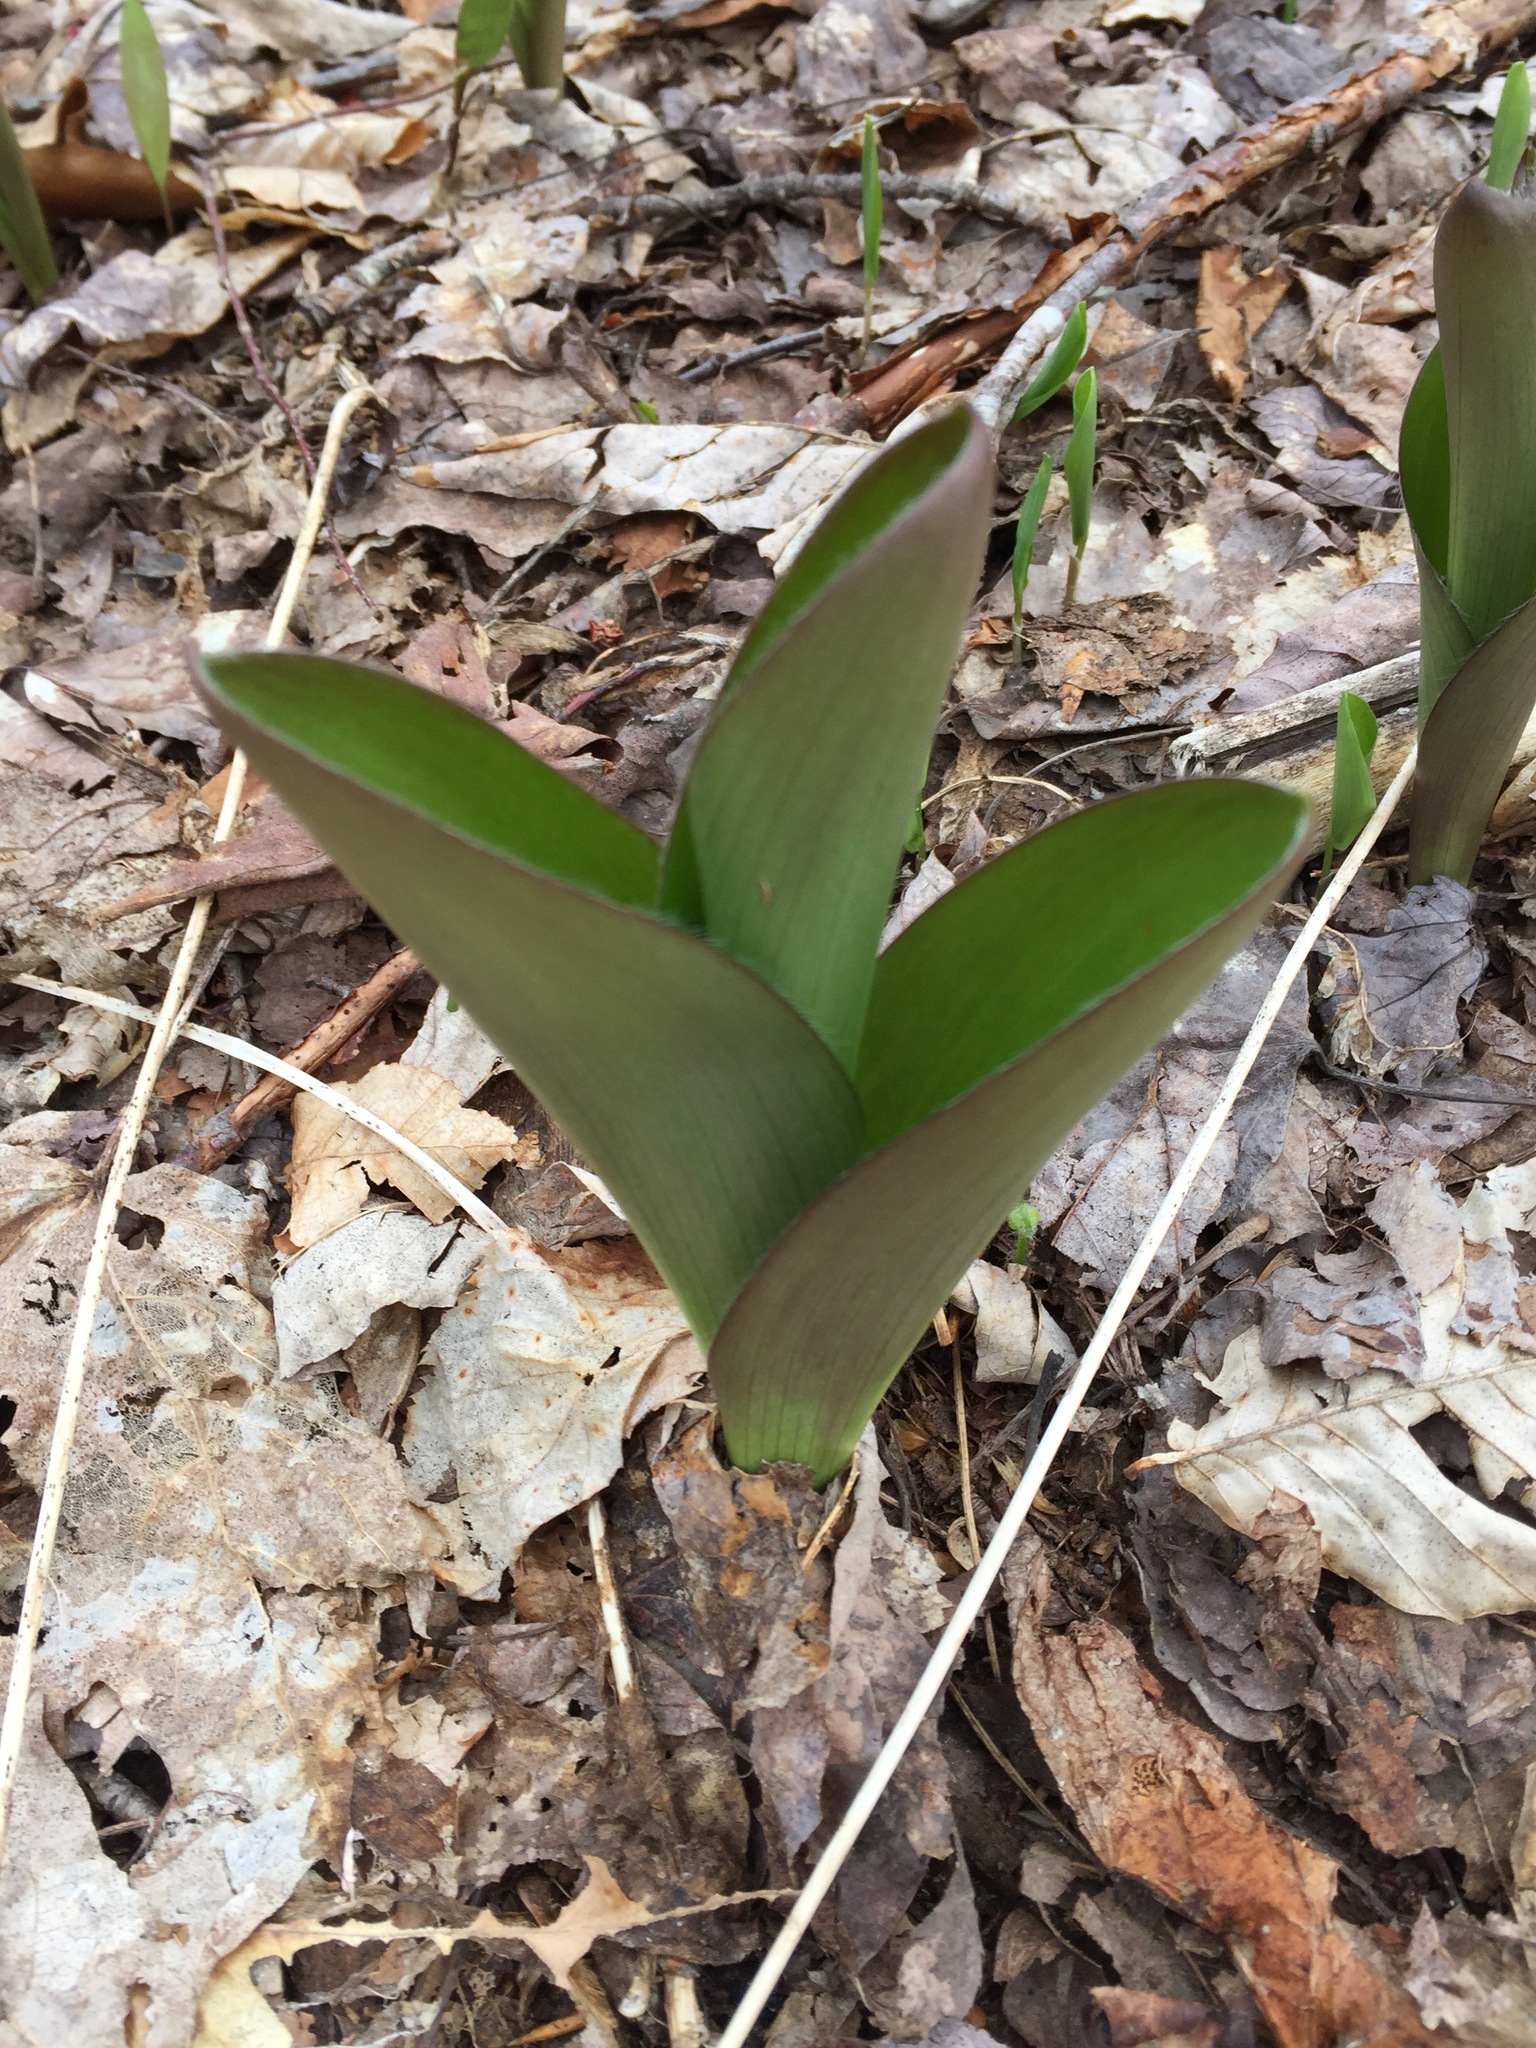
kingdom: Plantae
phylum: Tracheophyta
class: Liliopsida
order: Liliales
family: Liliaceae
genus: Clintonia
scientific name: Clintonia borealis
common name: Yellow clintonia
